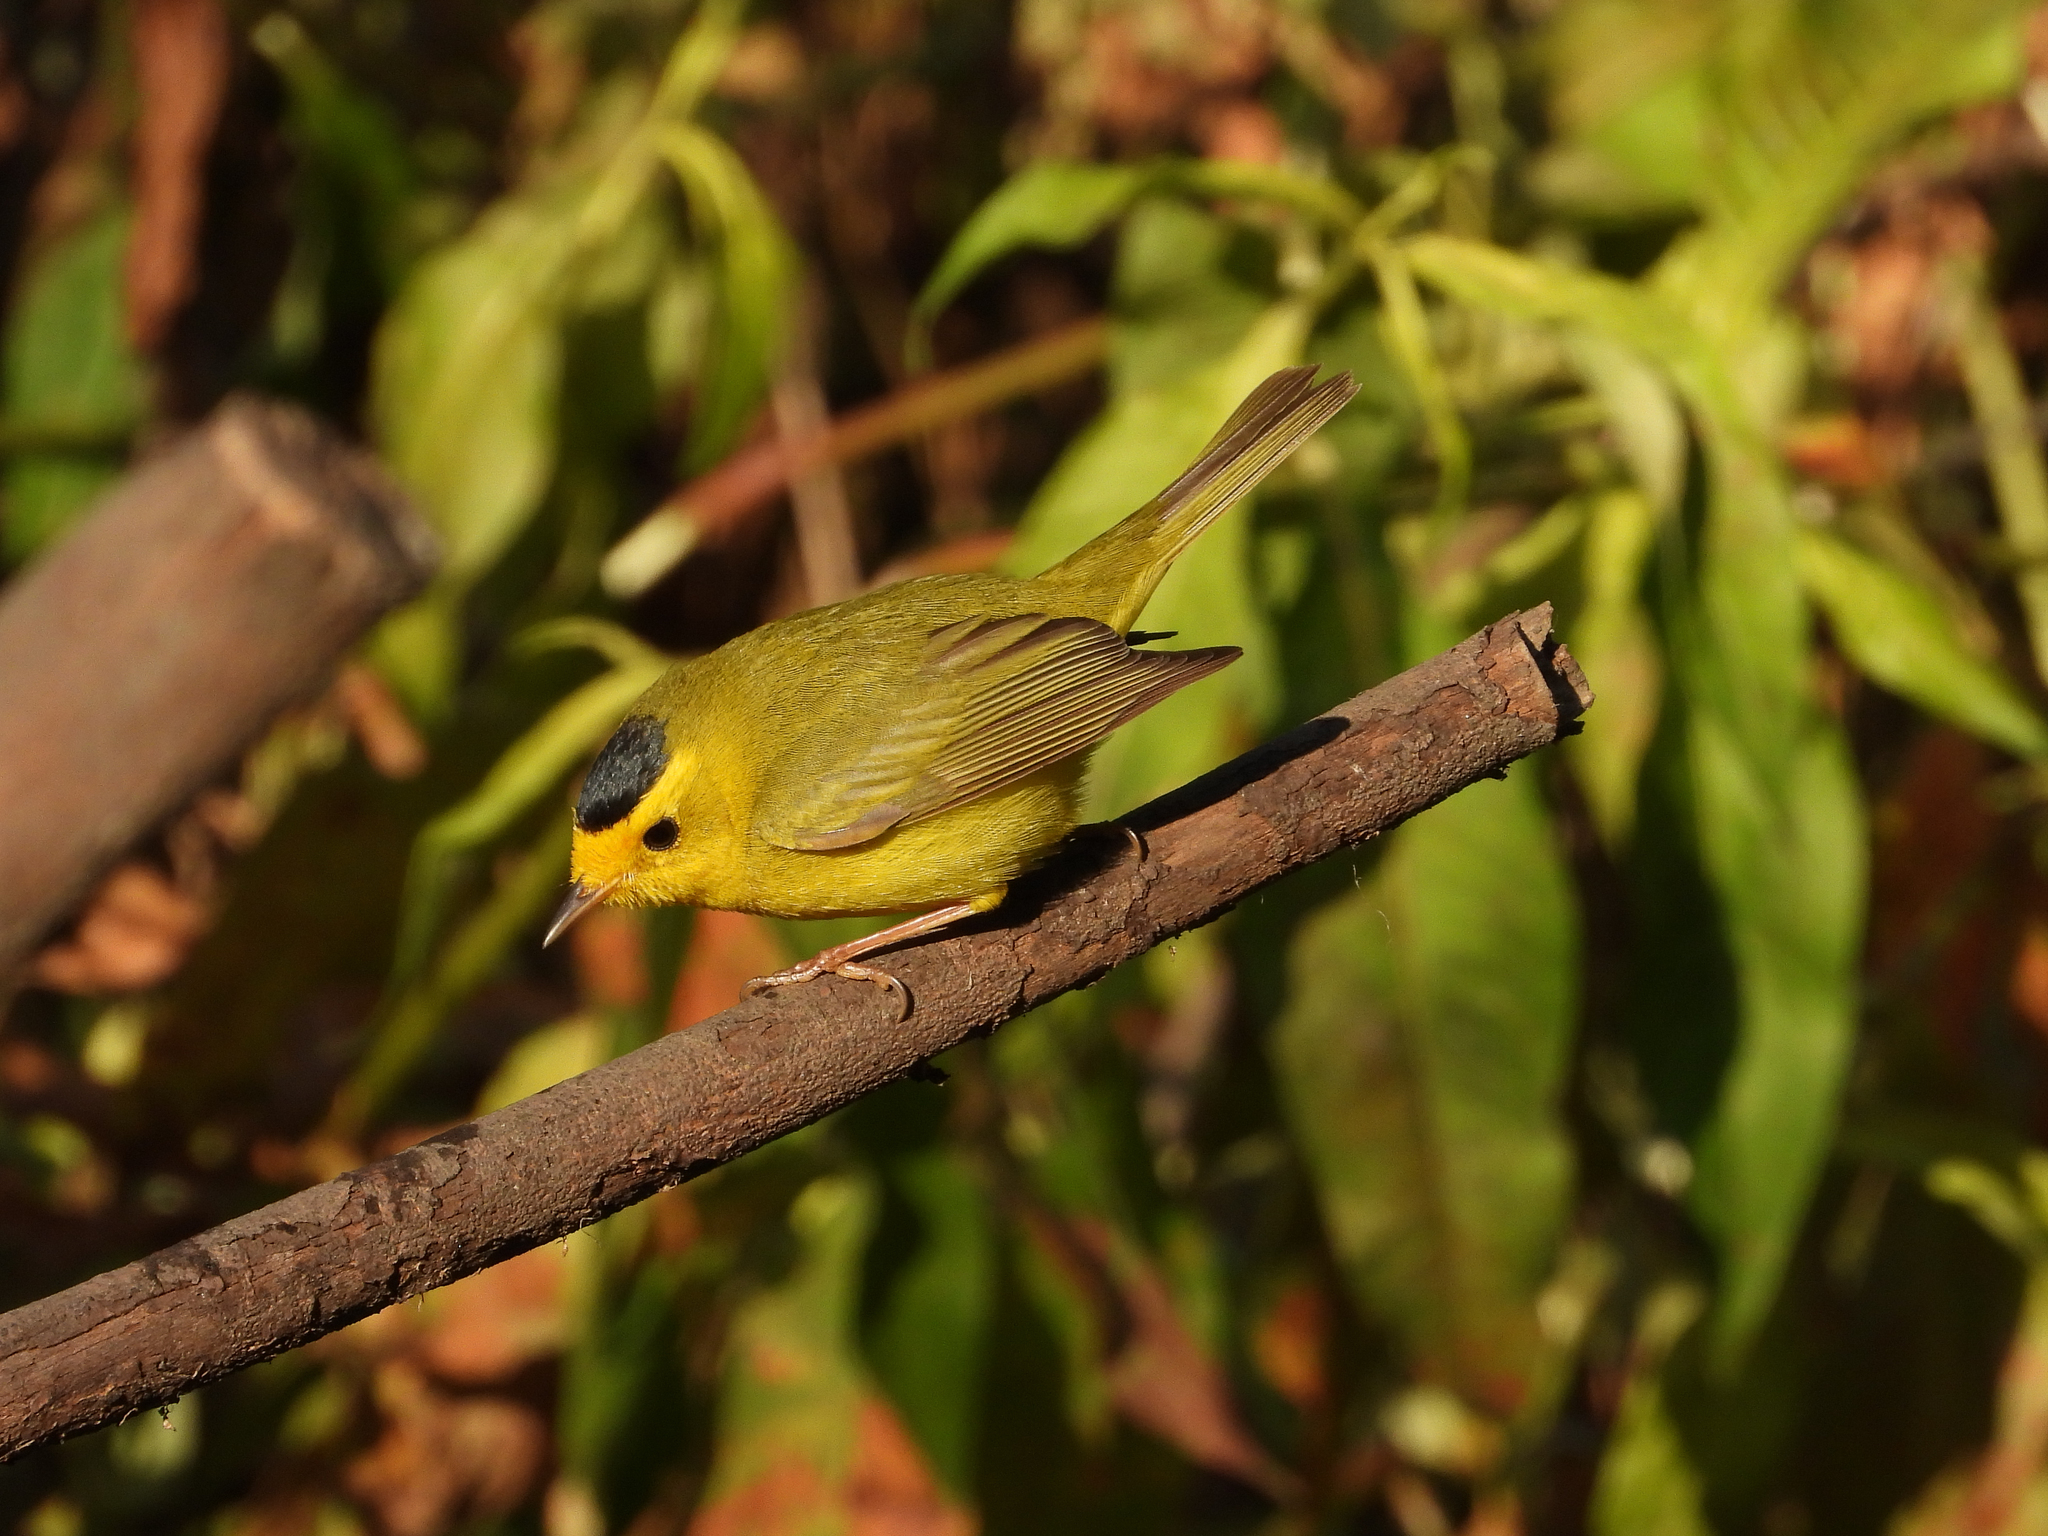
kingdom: Animalia
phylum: Chordata
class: Aves
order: Passeriformes
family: Parulidae
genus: Cardellina
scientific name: Cardellina pusilla
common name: Wilson's warbler
